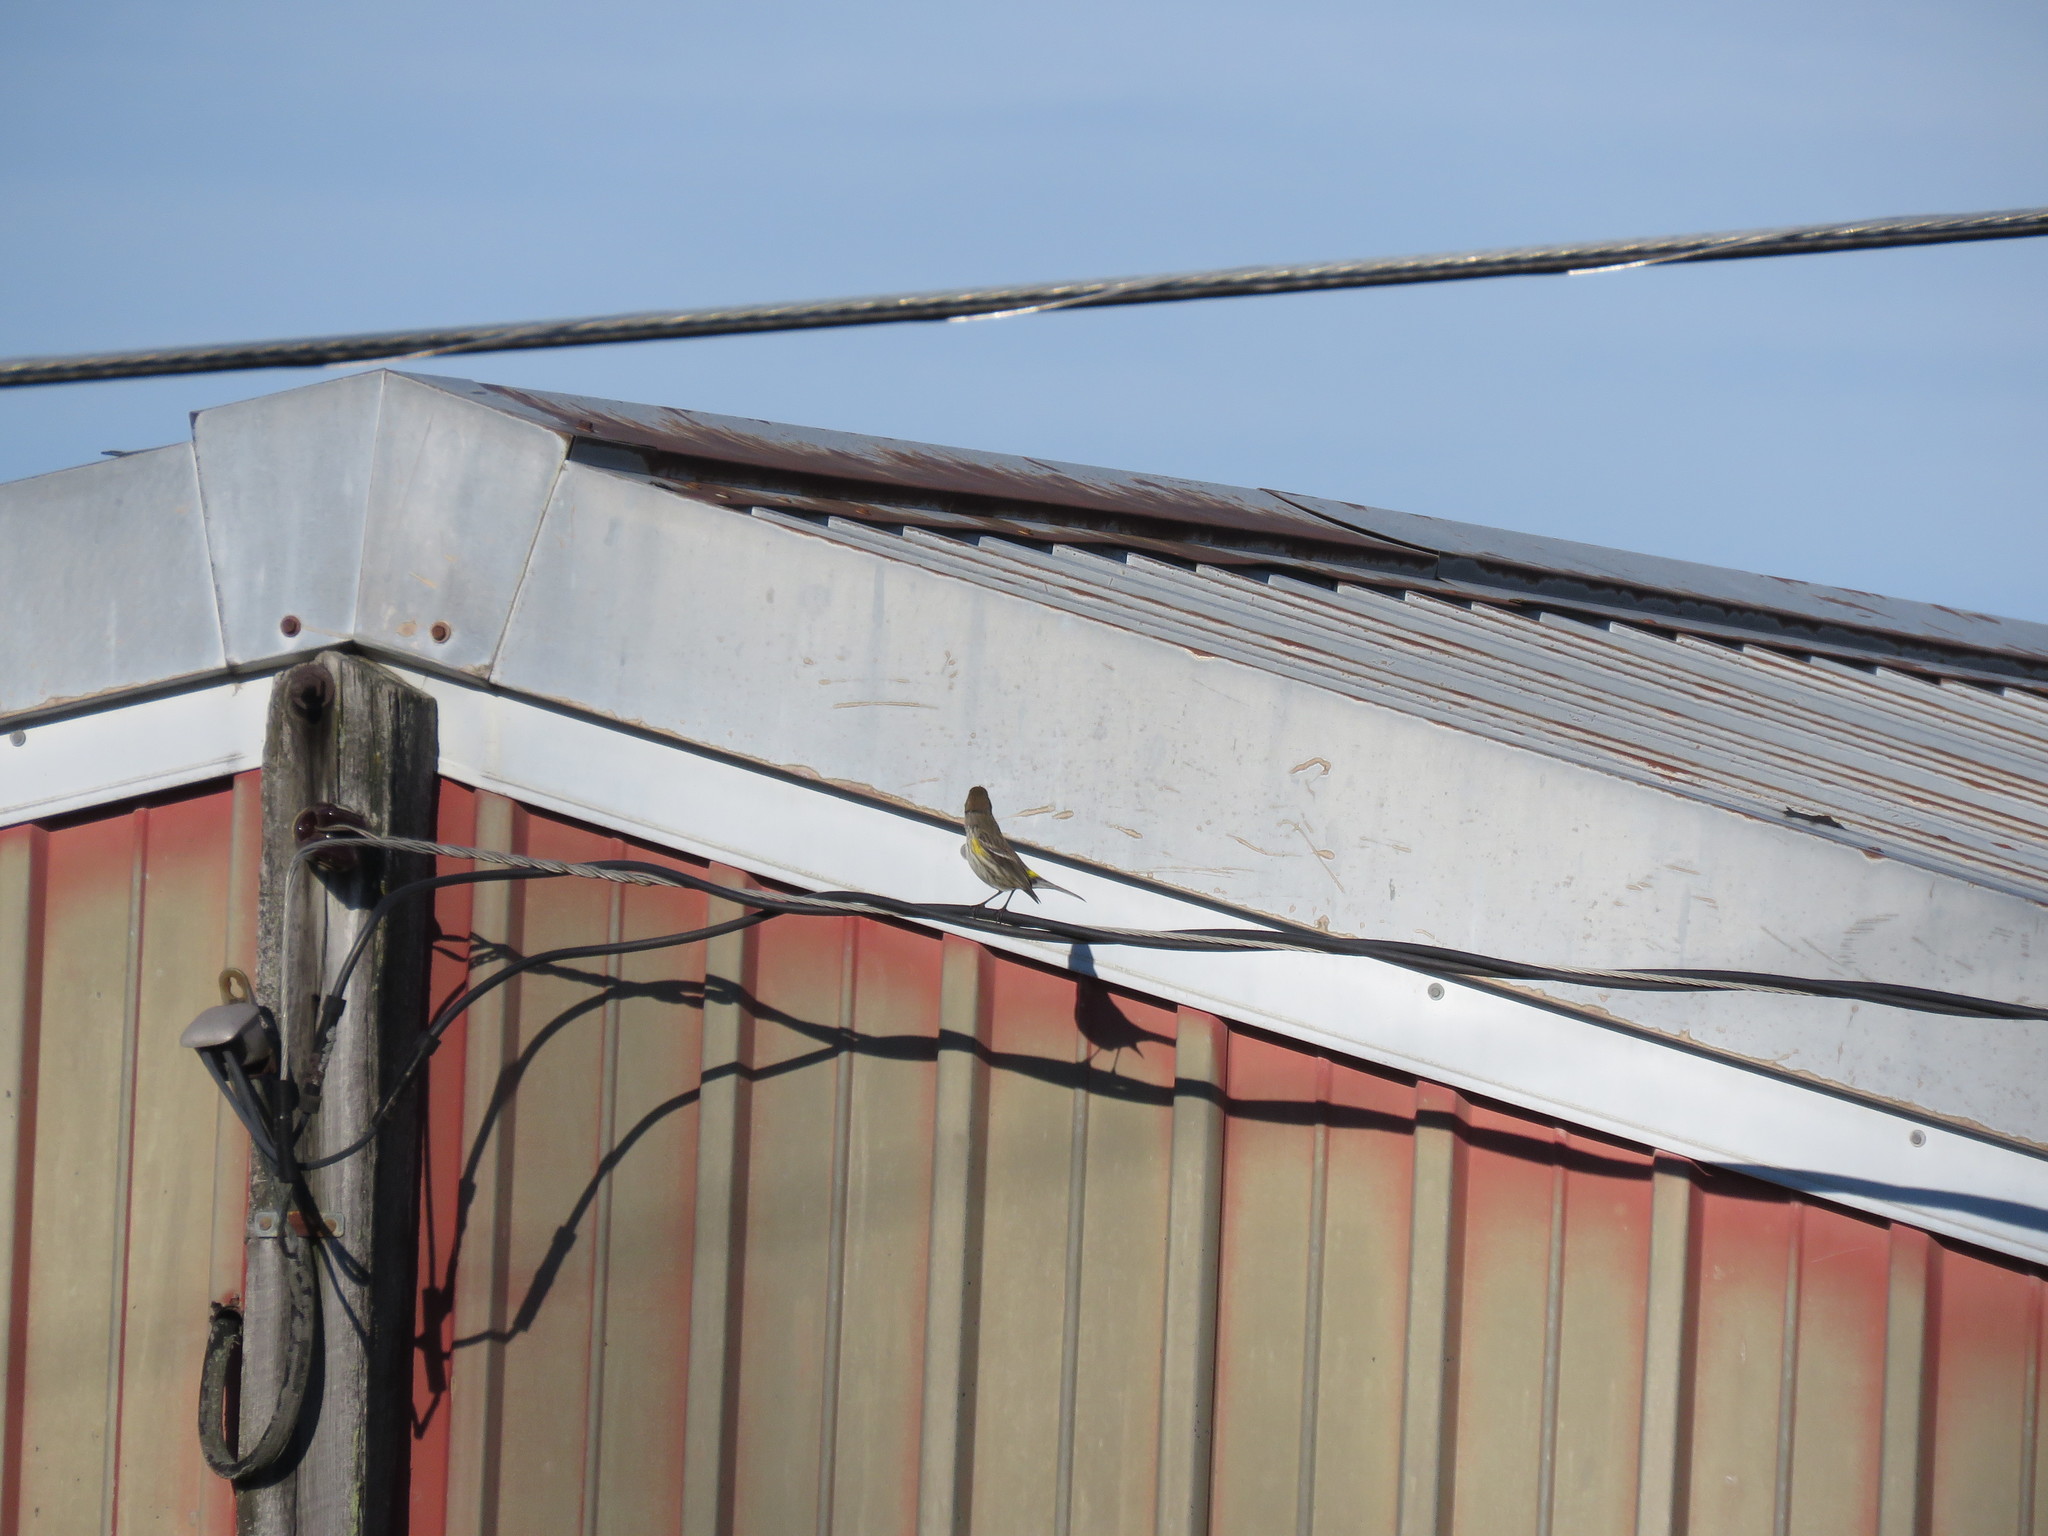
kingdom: Animalia
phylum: Chordata
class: Aves
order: Passeriformes
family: Parulidae
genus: Setophaga
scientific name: Setophaga coronata
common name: Myrtle warbler
